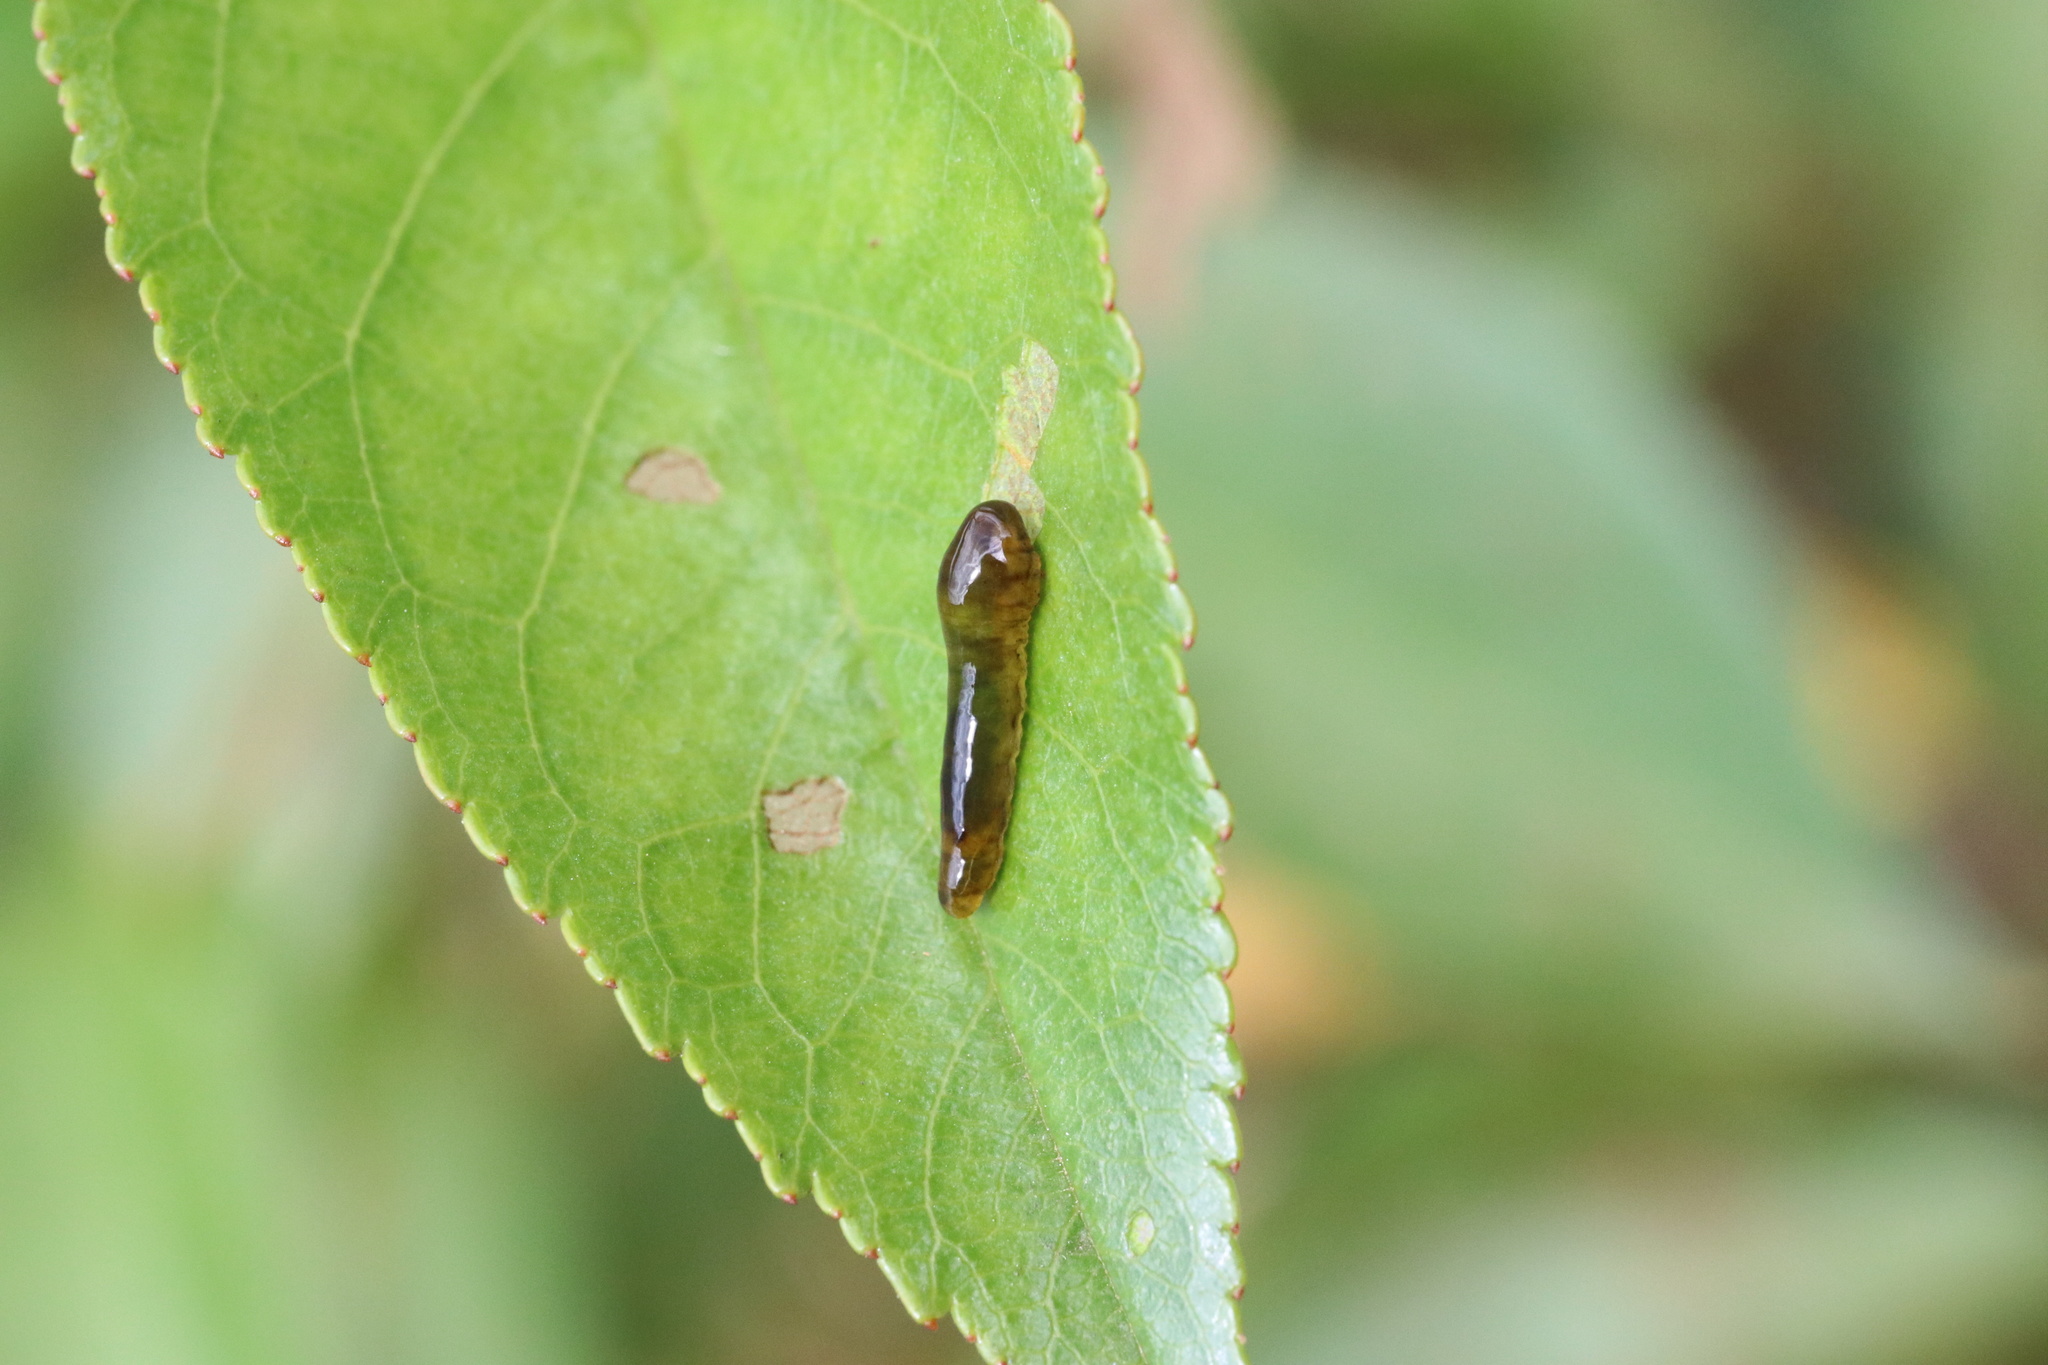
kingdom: Animalia
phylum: Arthropoda
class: Insecta
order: Hymenoptera
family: Tenthredinidae
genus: Caliroa
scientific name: Caliroa cerasi
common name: Pear sawfly
